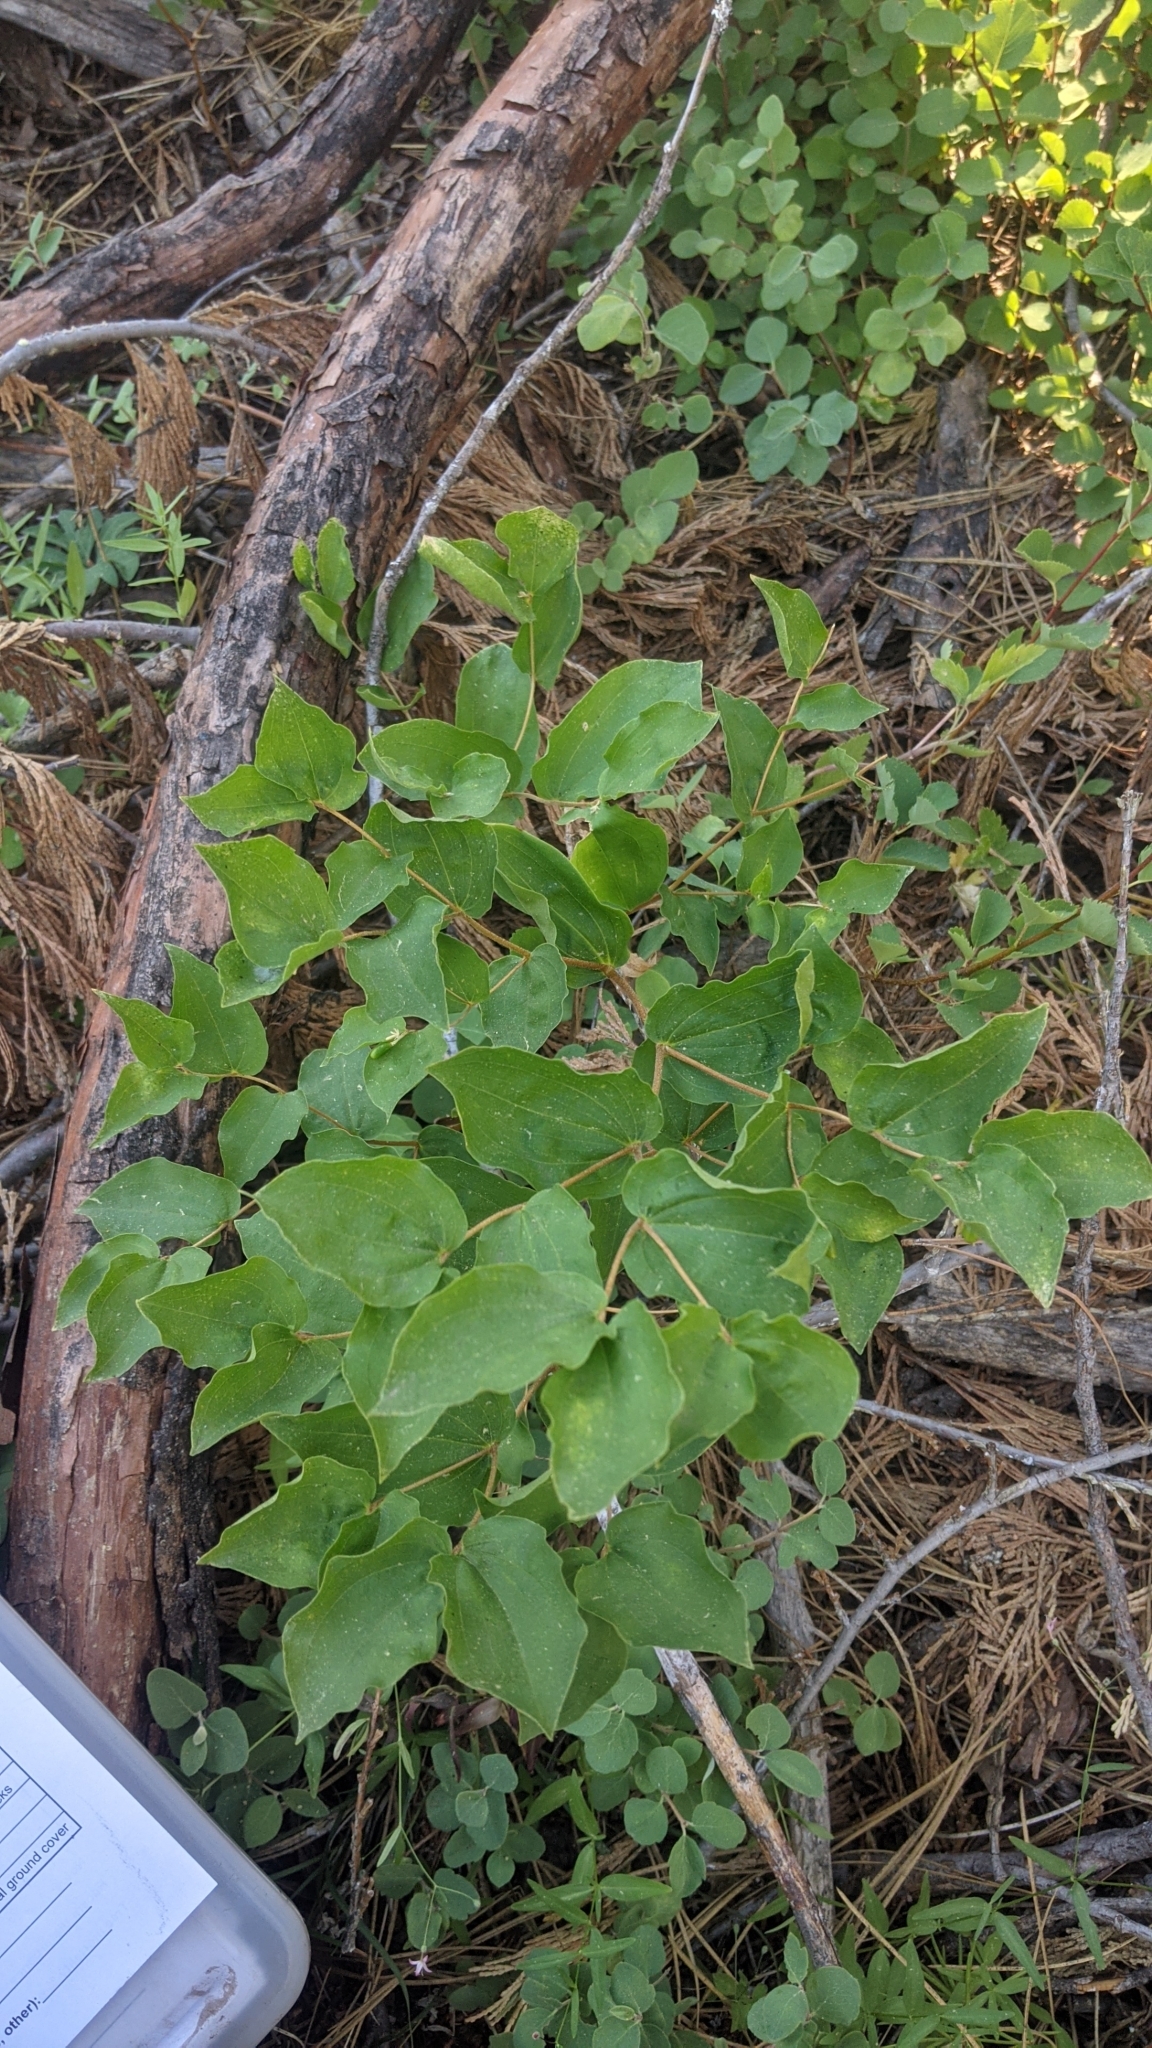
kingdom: Plantae
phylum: Tracheophyta
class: Liliopsida
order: Liliales
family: Liliaceae
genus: Prosartes
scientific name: Prosartes hookeri
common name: Fairy-bells
